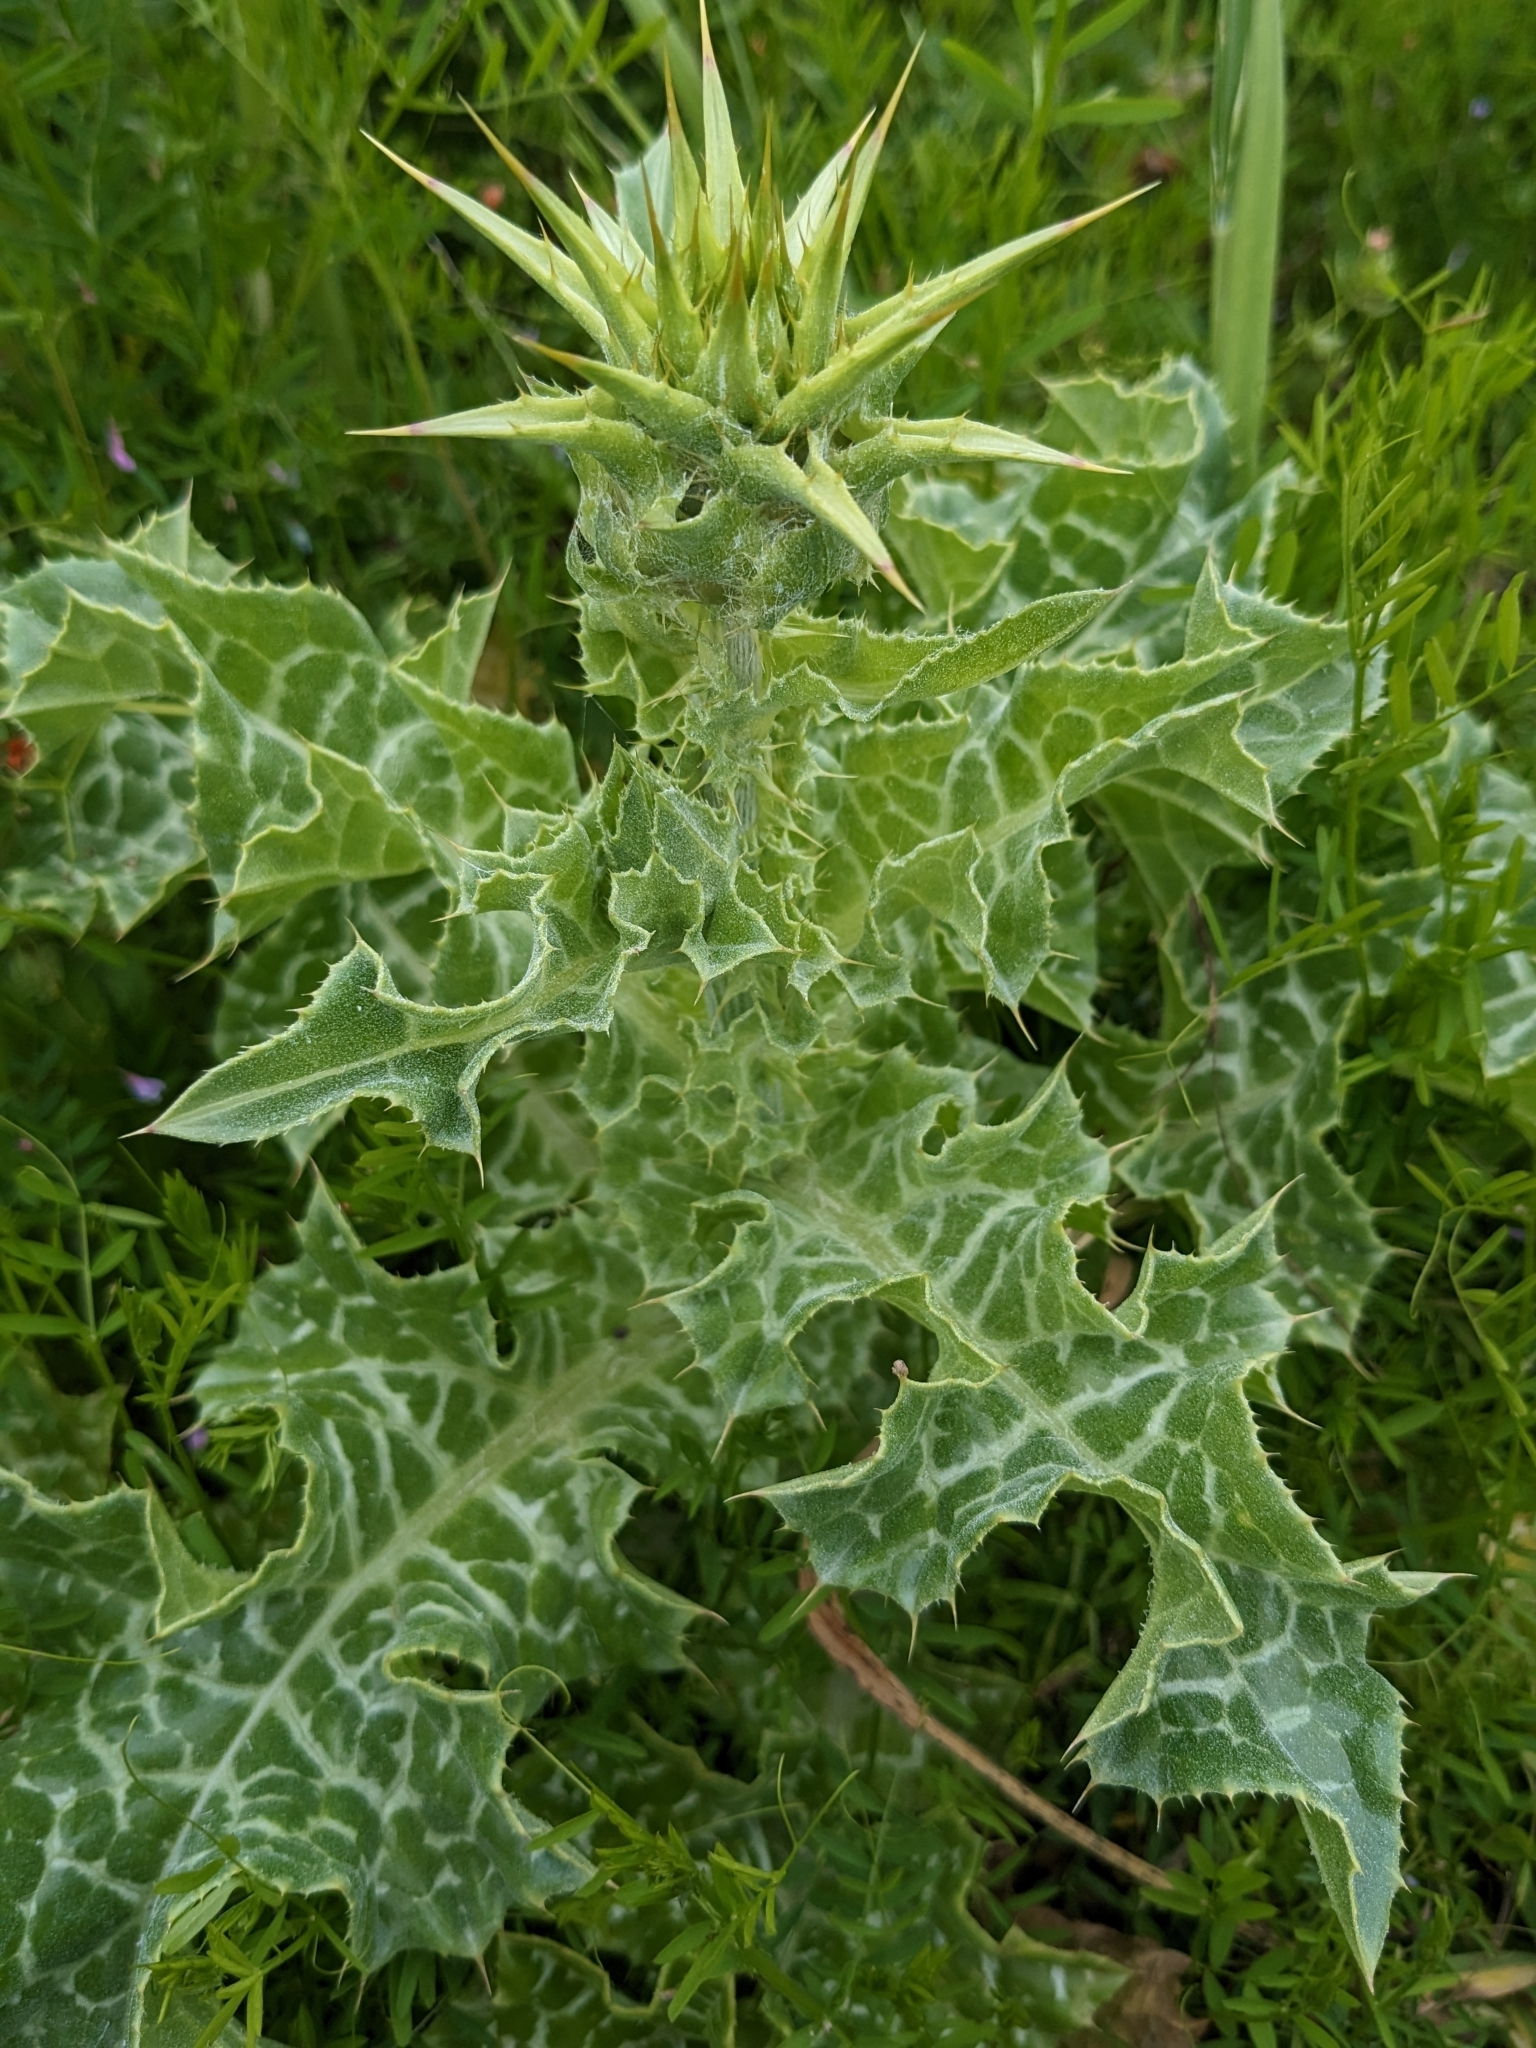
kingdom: Plantae
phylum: Tracheophyta
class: Magnoliopsida
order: Asterales
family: Asteraceae
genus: Silybum
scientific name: Silybum marianum
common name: Milk thistle
